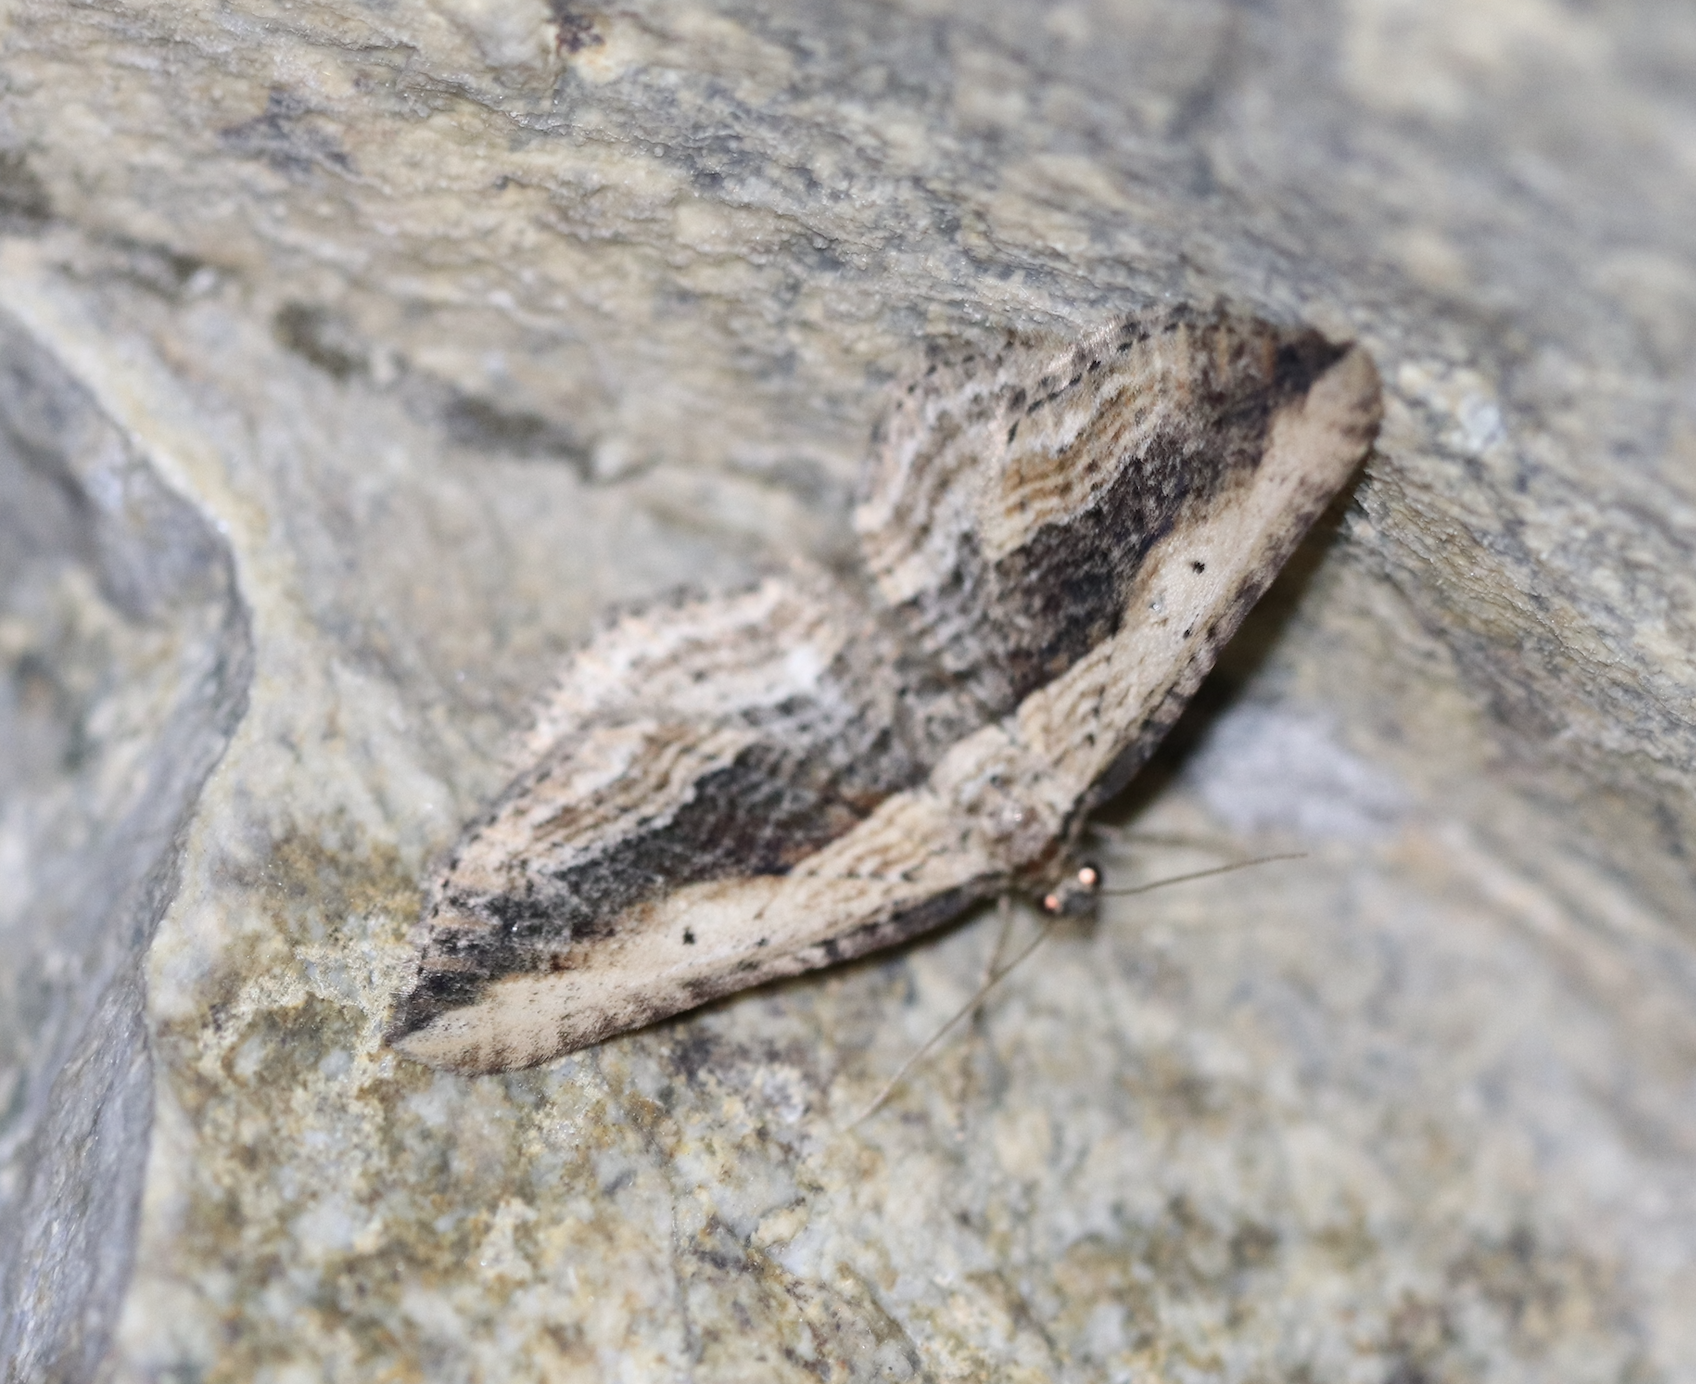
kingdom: Animalia
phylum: Arthropoda
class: Insecta
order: Lepidoptera
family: Geometridae
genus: Horisme
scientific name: Horisme vitalbata
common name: Small waved umber
